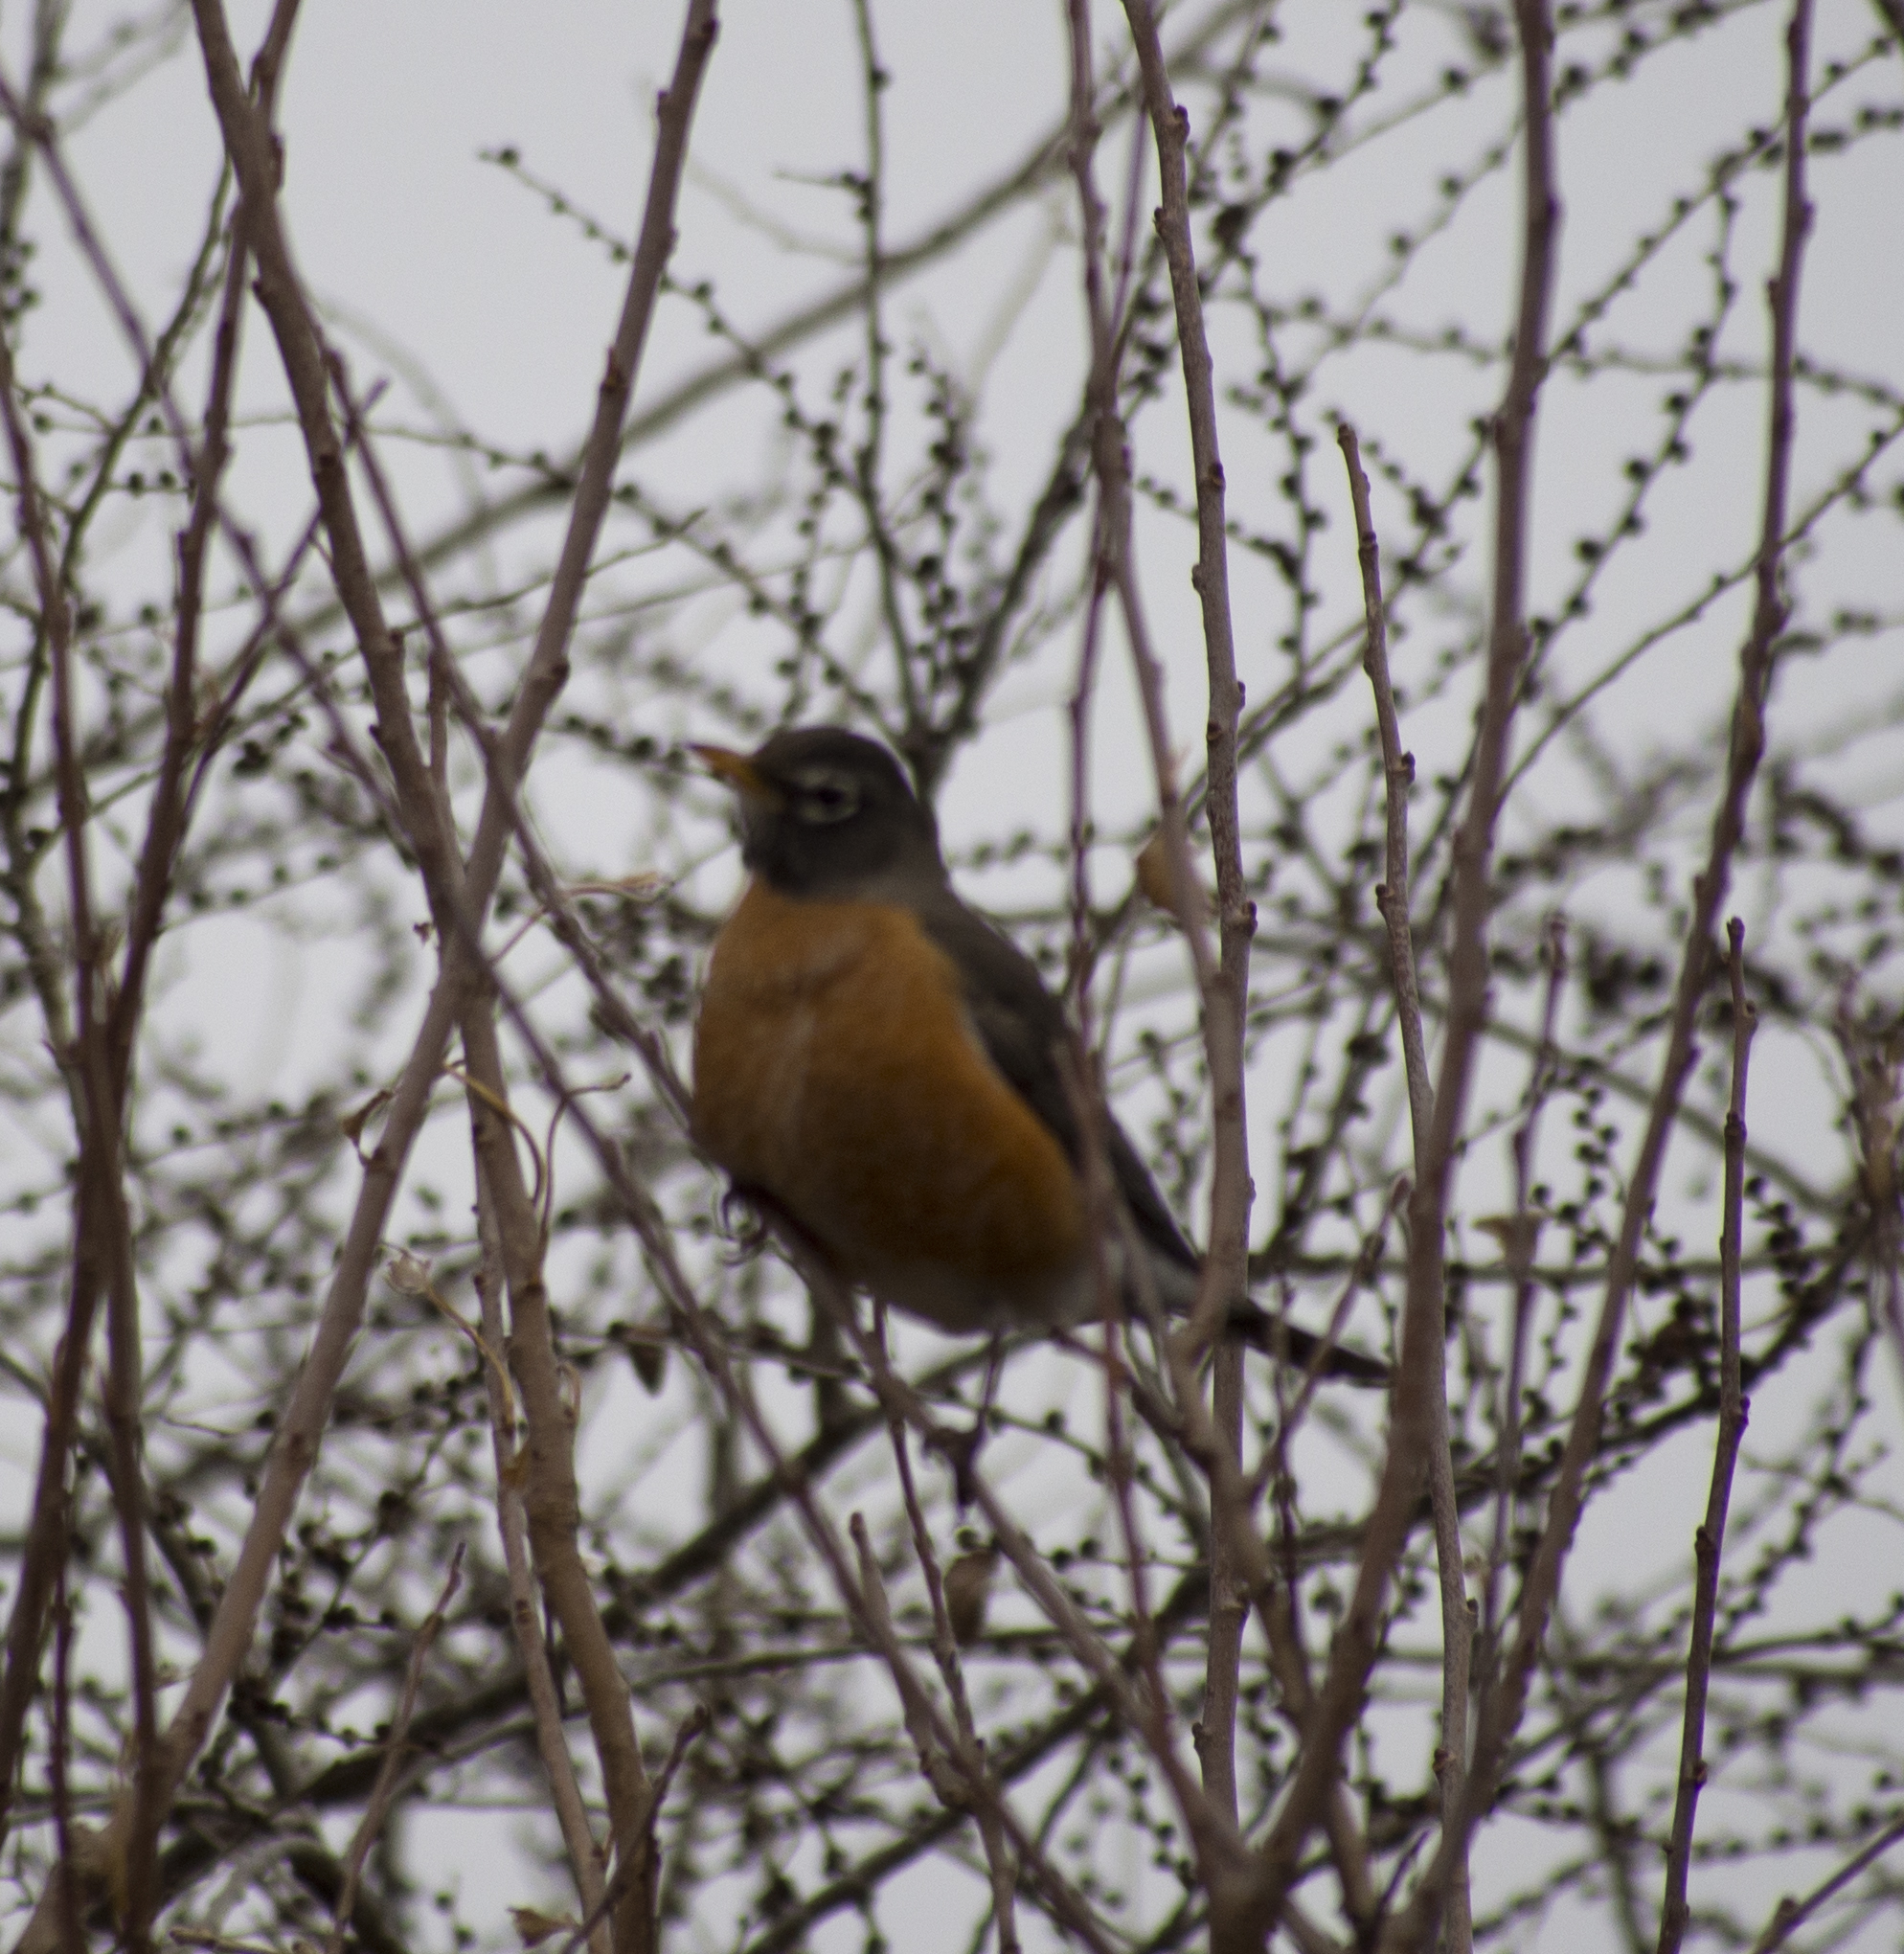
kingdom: Animalia
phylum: Chordata
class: Aves
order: Passeriformes
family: Turdidae
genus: Turdus
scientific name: Turdus migratorius
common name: American robin
